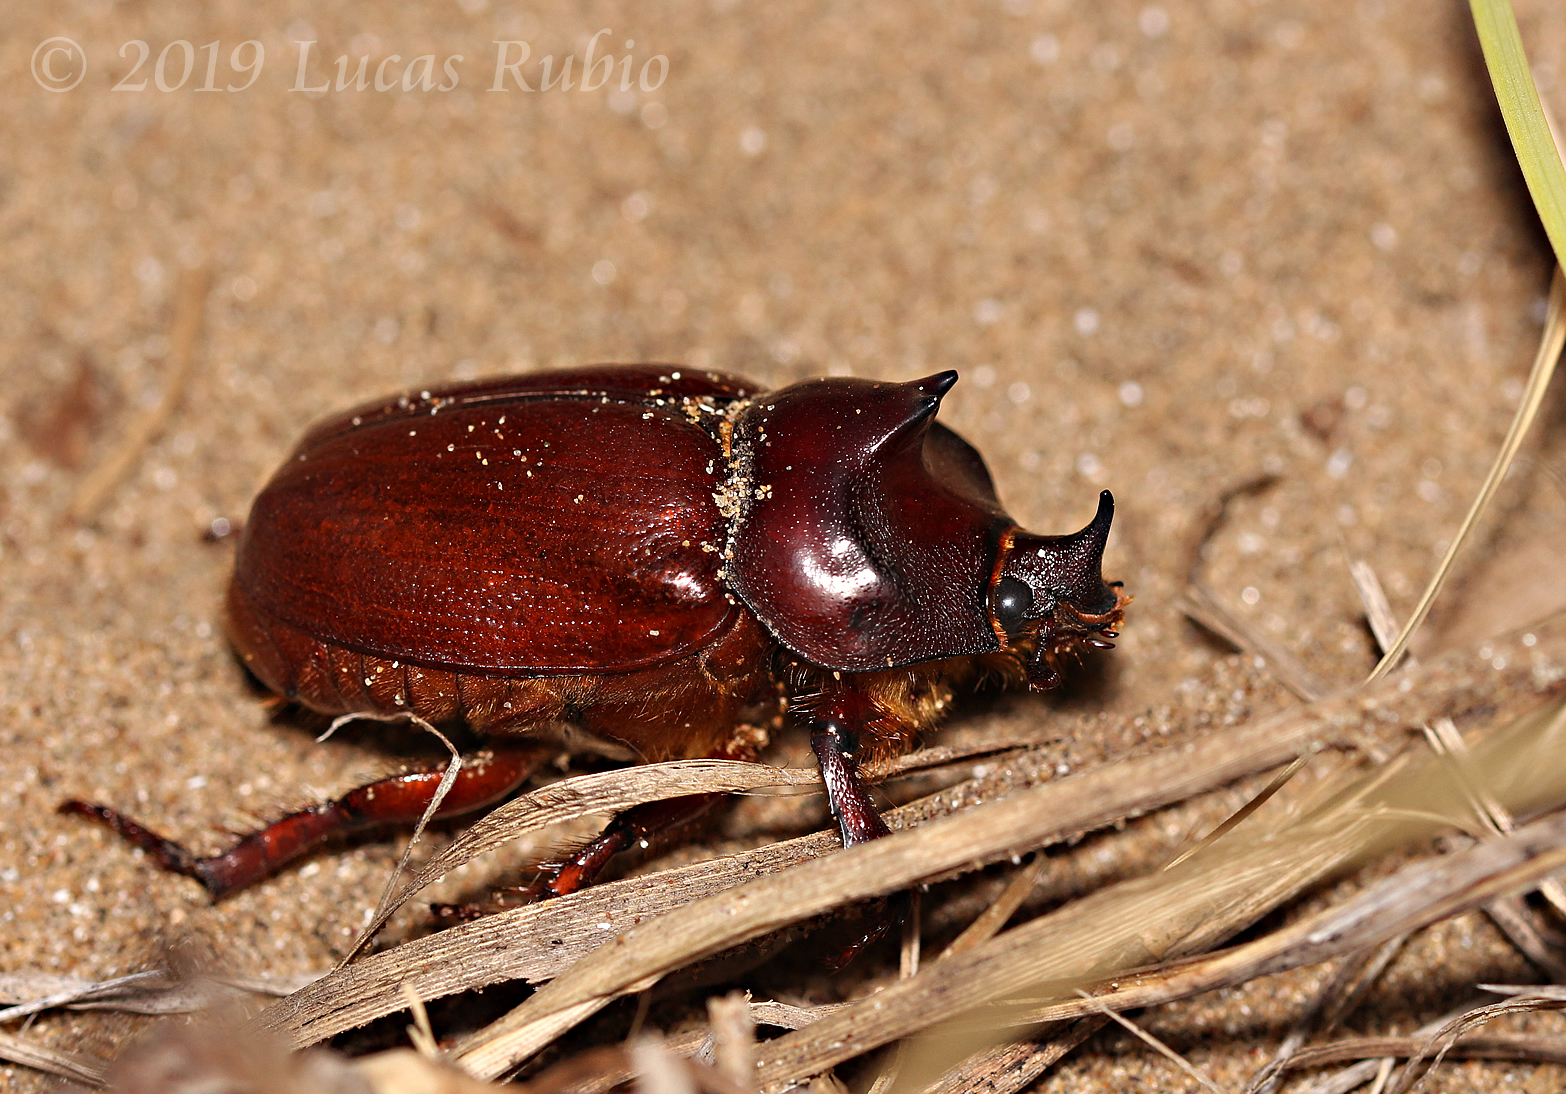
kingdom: Animalia
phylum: Arthropoda
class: Insecta
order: Coleoptera
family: Scarabaeidae
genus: Thronistes
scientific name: Thronistes rouxi
